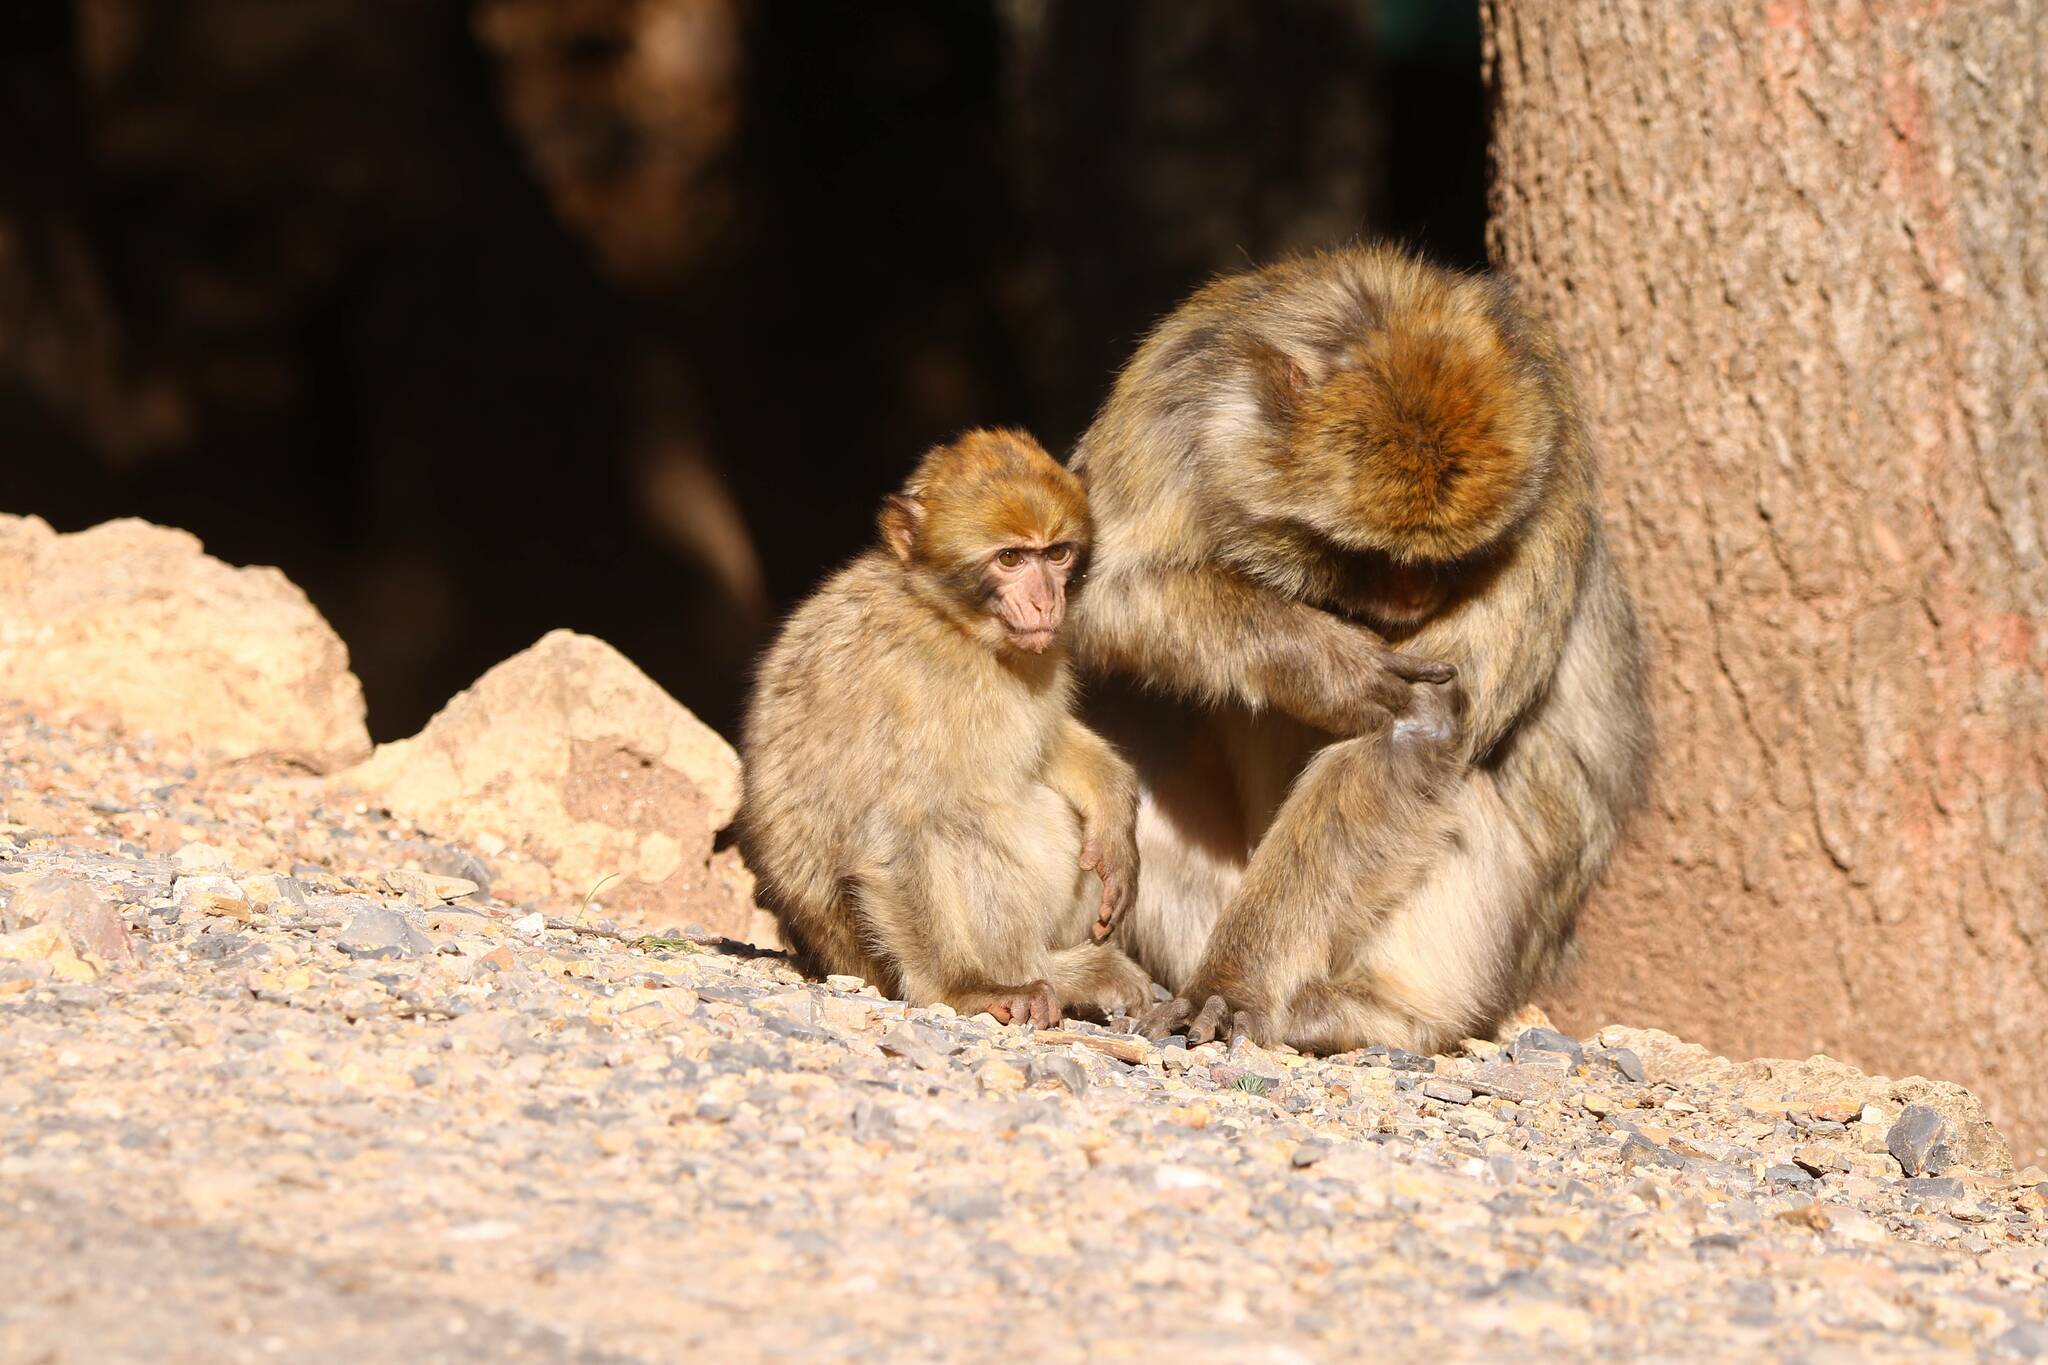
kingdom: Animalia
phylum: Chordata
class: Mammalia
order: Primates
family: Cercopithecidae
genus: Macaca
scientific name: Macaca sylvanus
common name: Barbary macaque
